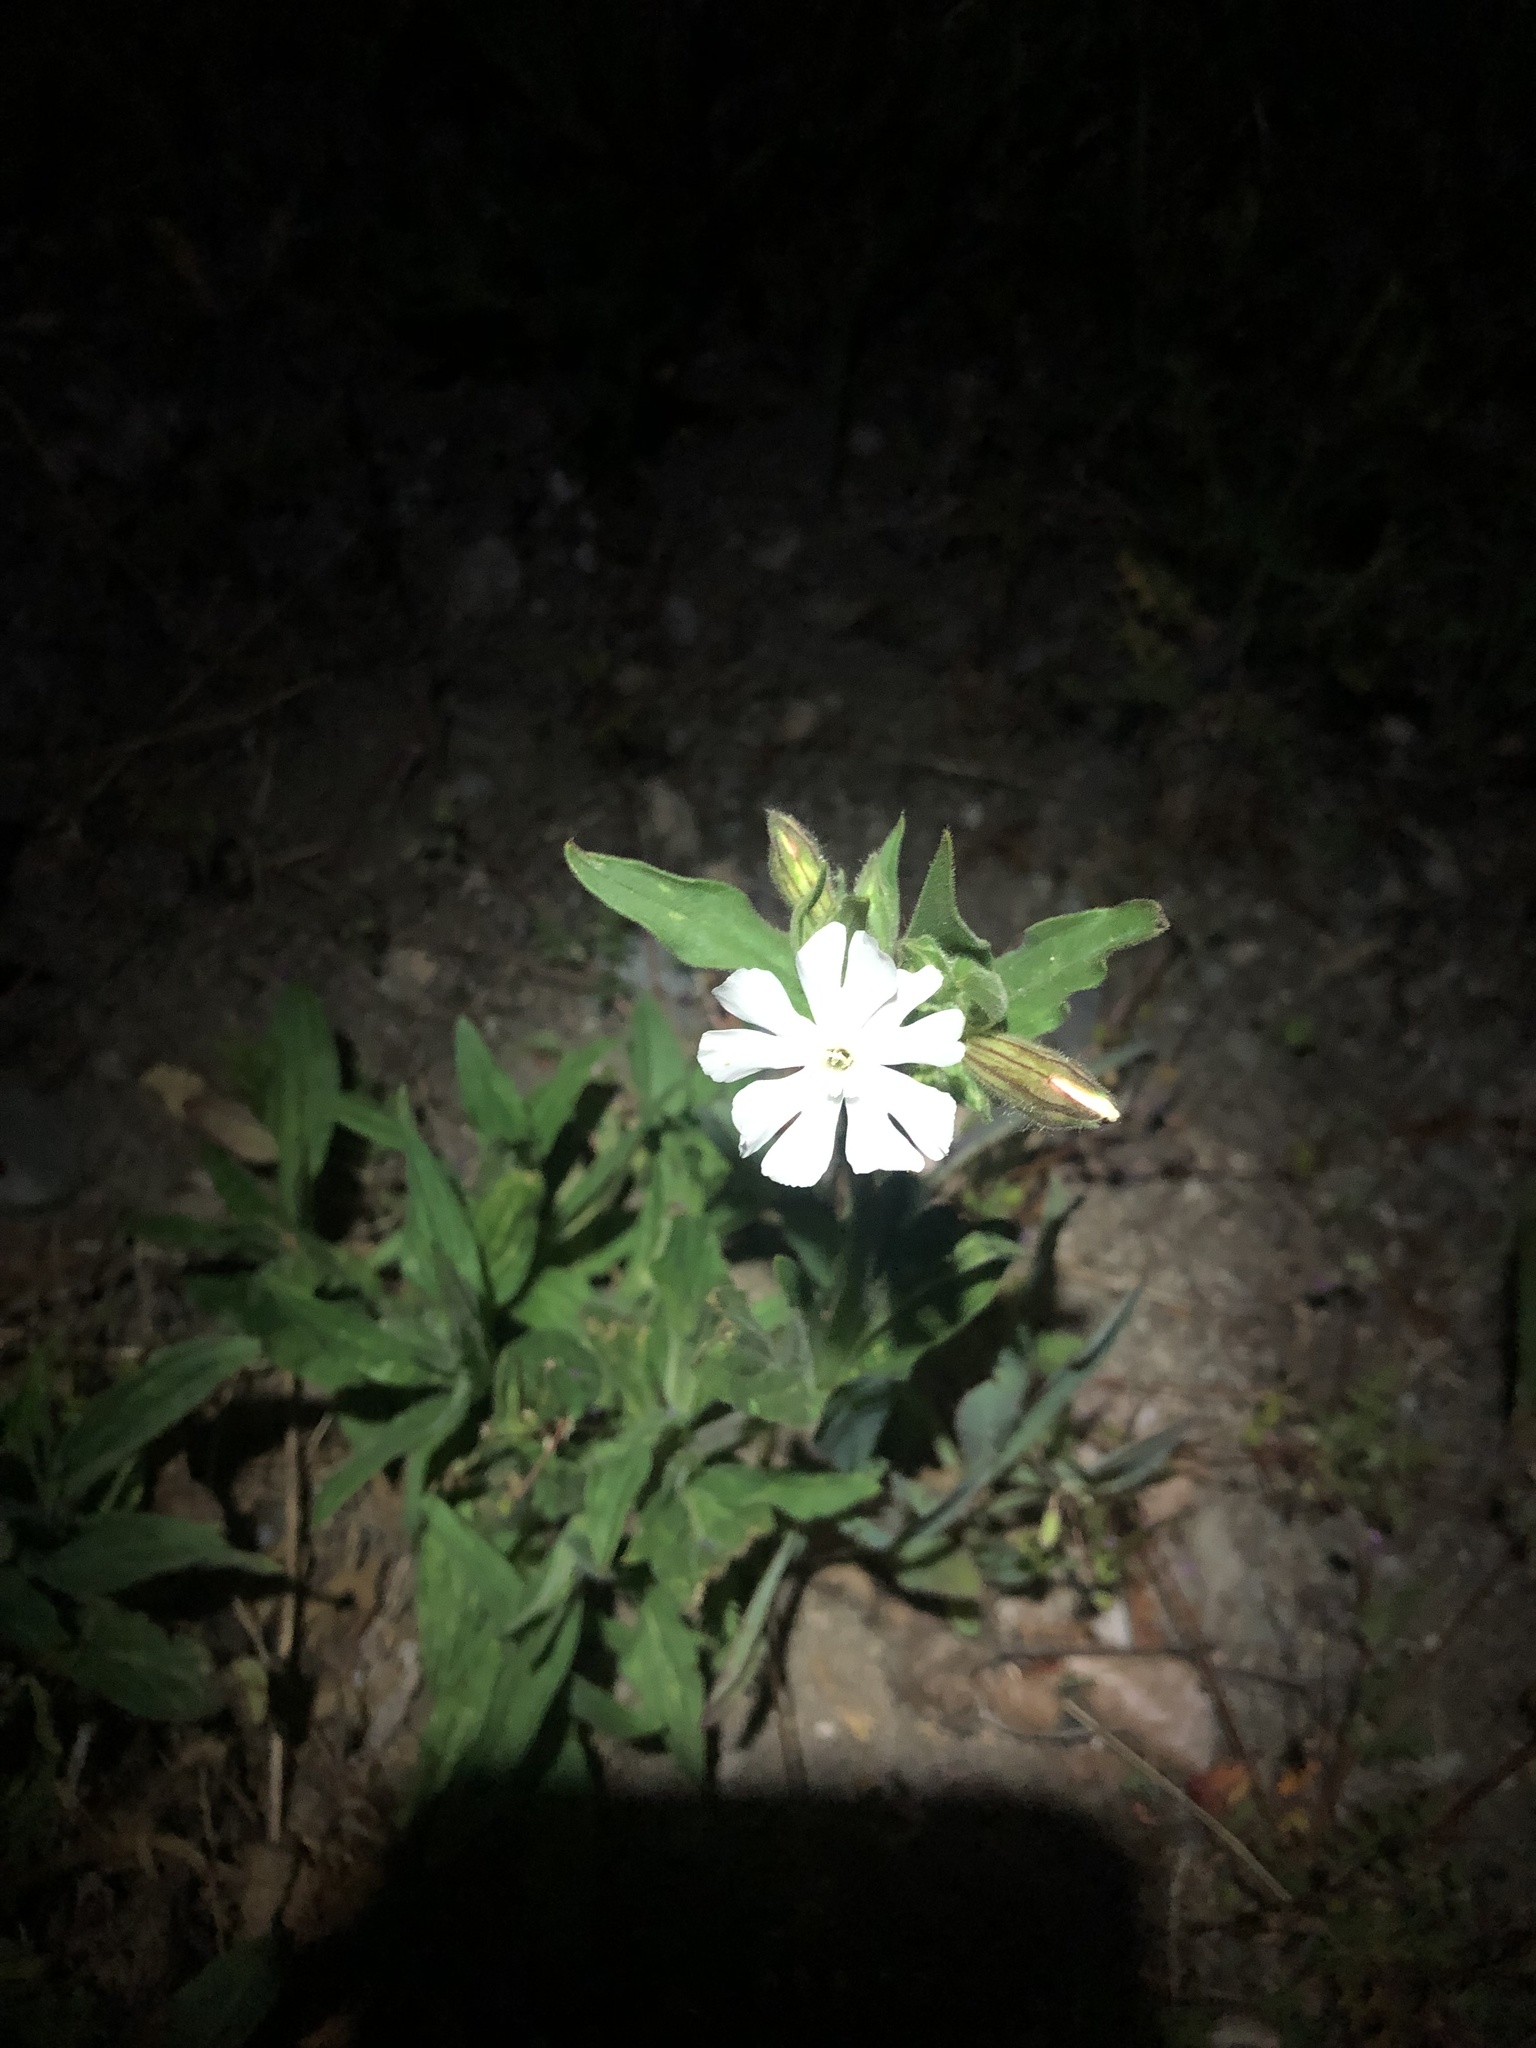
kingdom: Plantae
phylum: Tracheophyta
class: Magnoliopsida
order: Caryophyllales
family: Caryophyllaceae
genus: Silene
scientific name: Silene latifolia
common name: White campion
